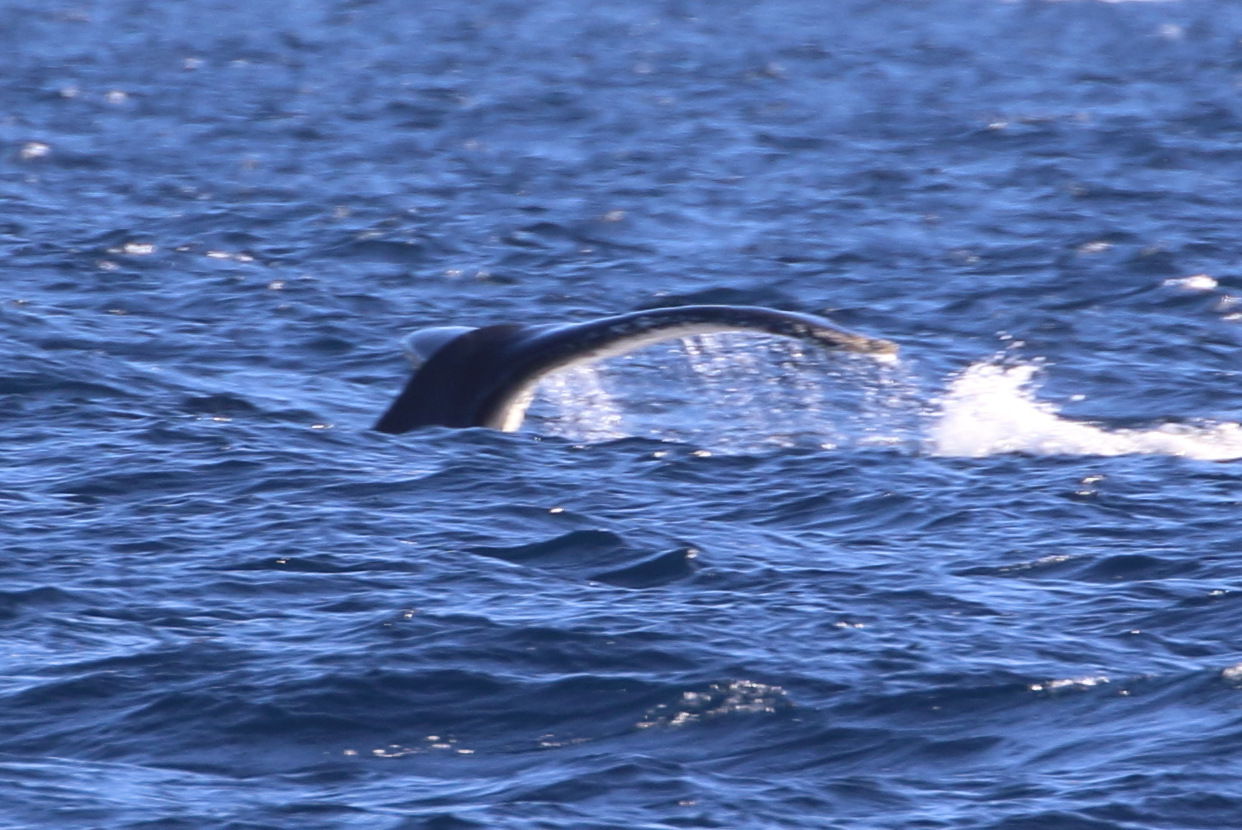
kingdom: Animalia
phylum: Chordata
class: Mammalia
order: Cetacea
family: Balaenopteridae
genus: Megaptera
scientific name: Megaptera novaeangliae
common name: Humpback whale
